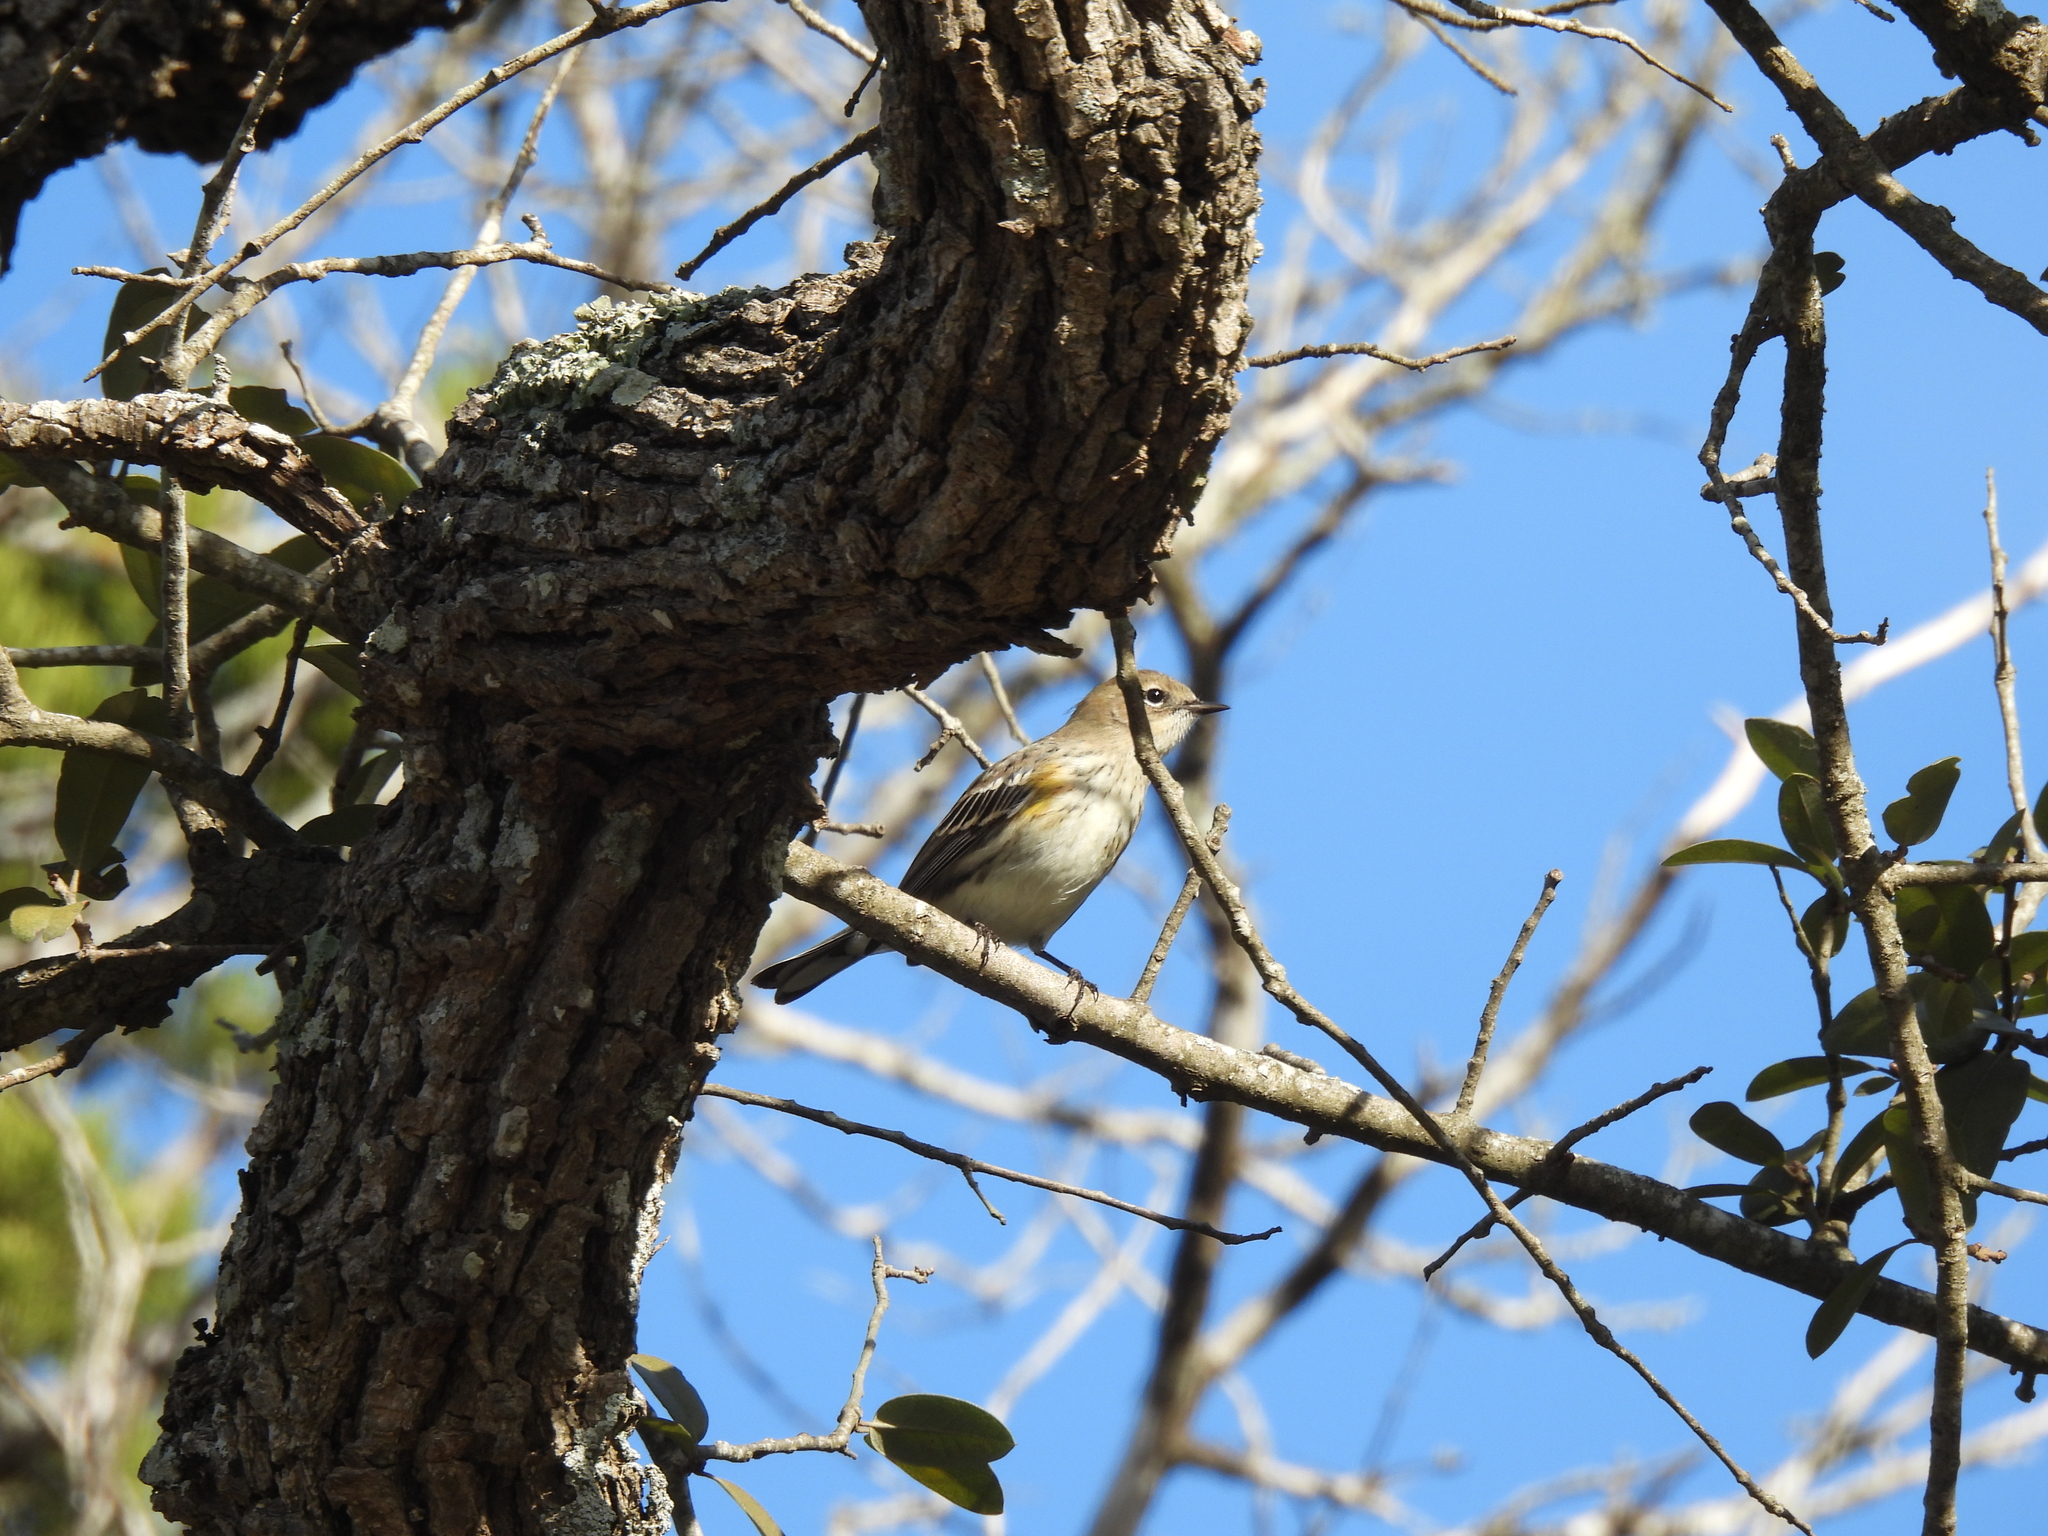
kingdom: Animalia
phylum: Chordata
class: Aves
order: Passeriformes
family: Parulidae
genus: Setophaga
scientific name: Setophaga coronata
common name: Myrtle warbler
